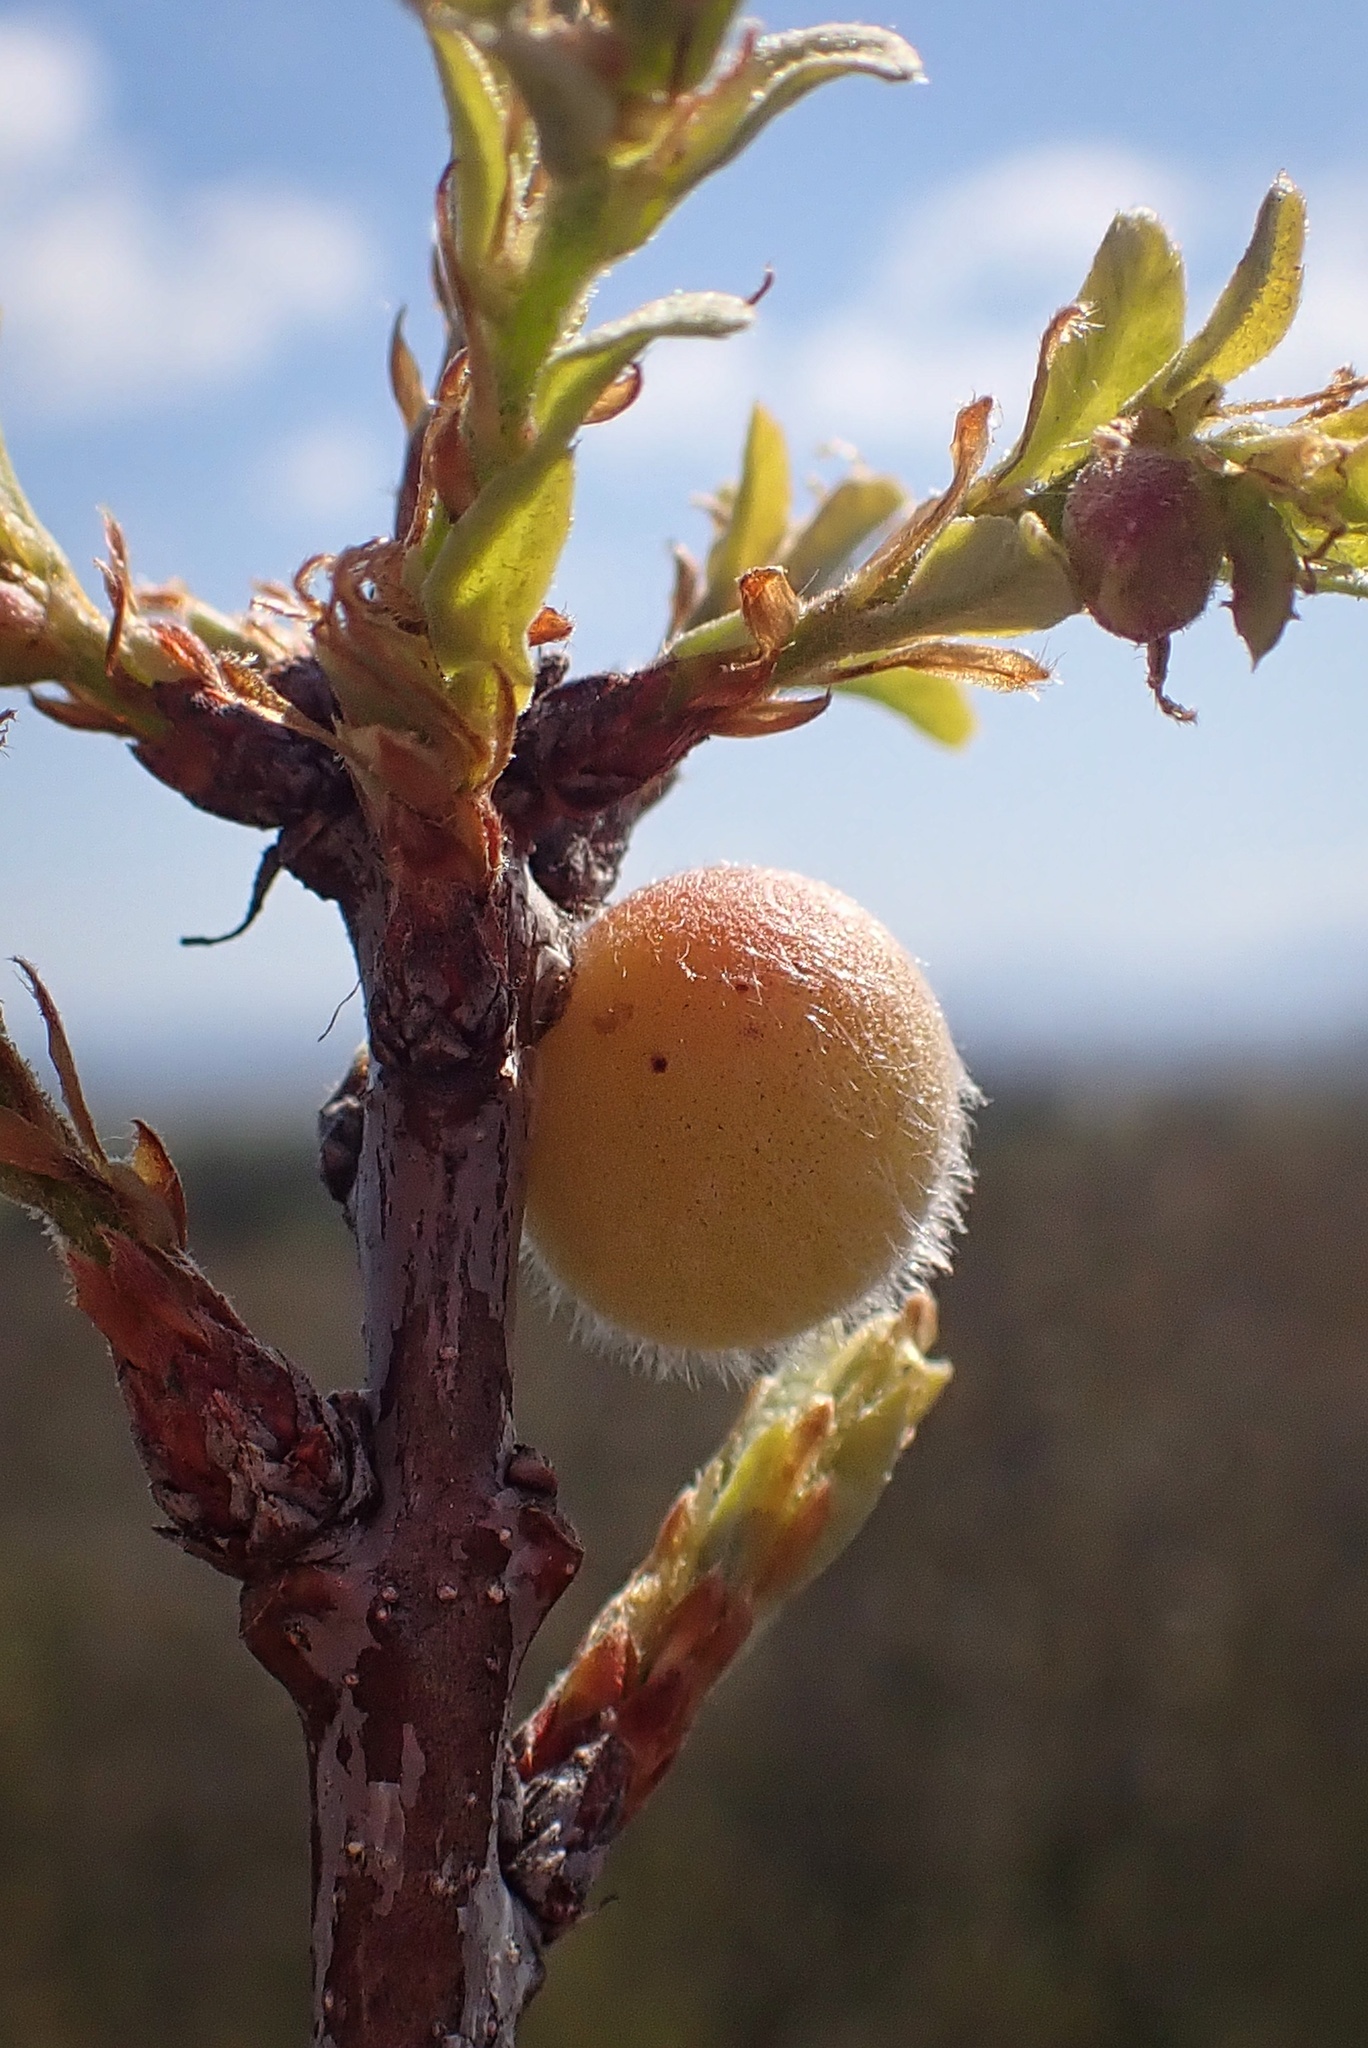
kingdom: Animalia
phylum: Arthropoda
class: Insecta
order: Hymenoptera
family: Cynipidae
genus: Burnettweldia
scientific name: Burnettweldia
